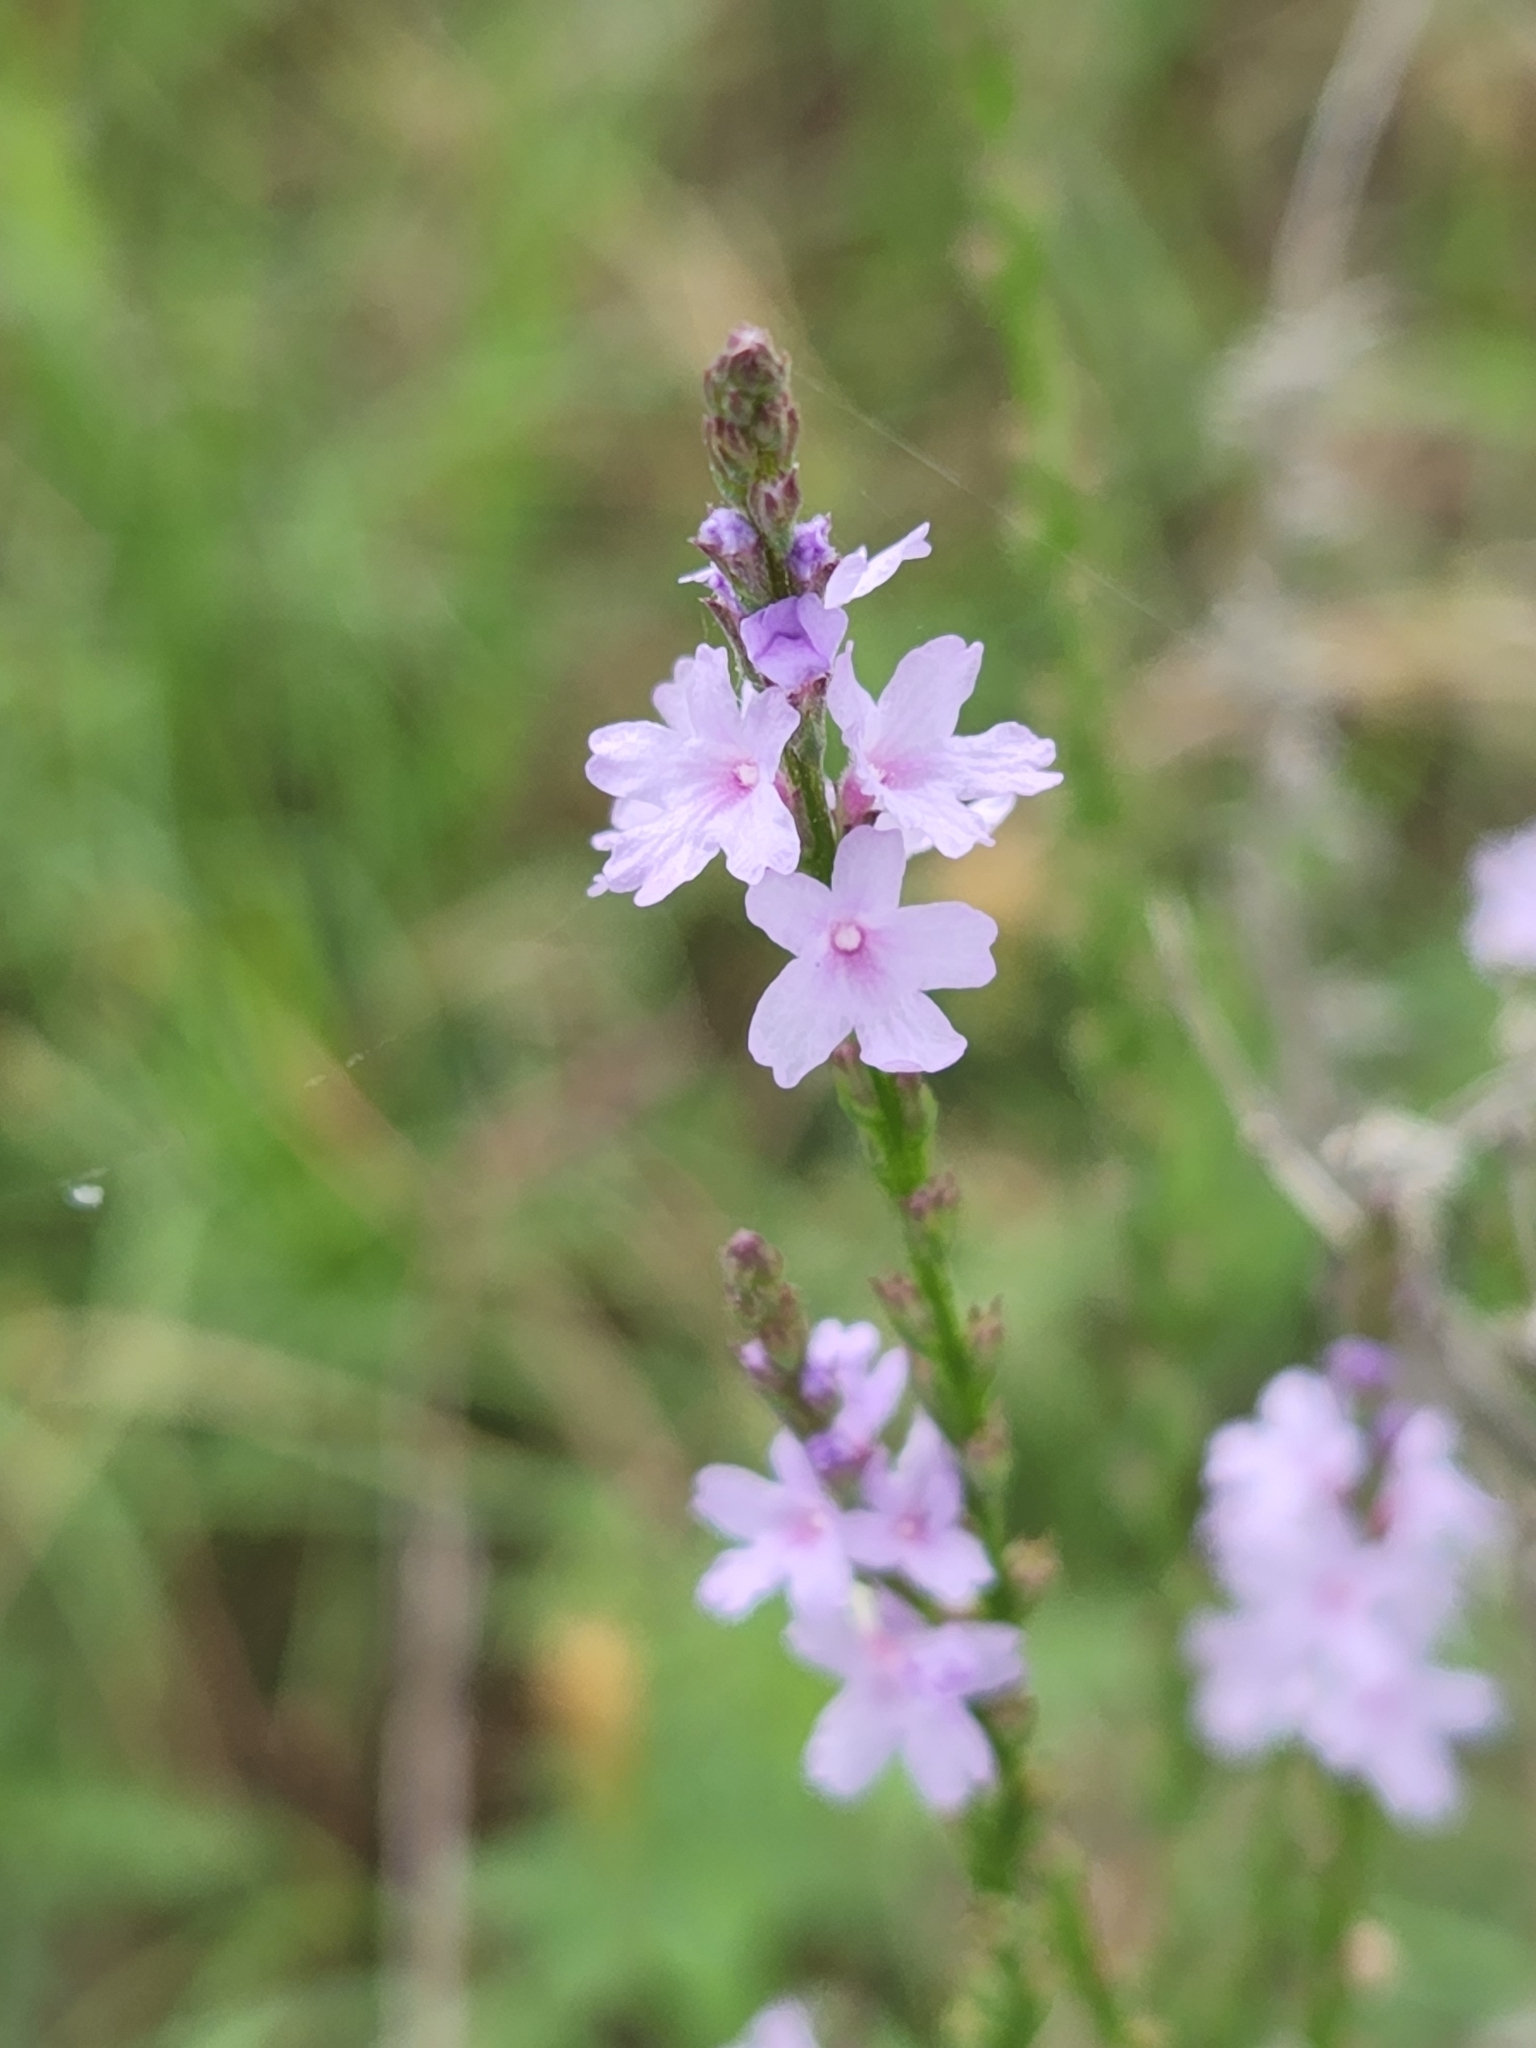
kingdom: Plantae
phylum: Tracheophyta
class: Magnoliopsida
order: Lamiales
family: Verbenaceae
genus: Verbena
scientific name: Verbena halei
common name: Texas vervain
